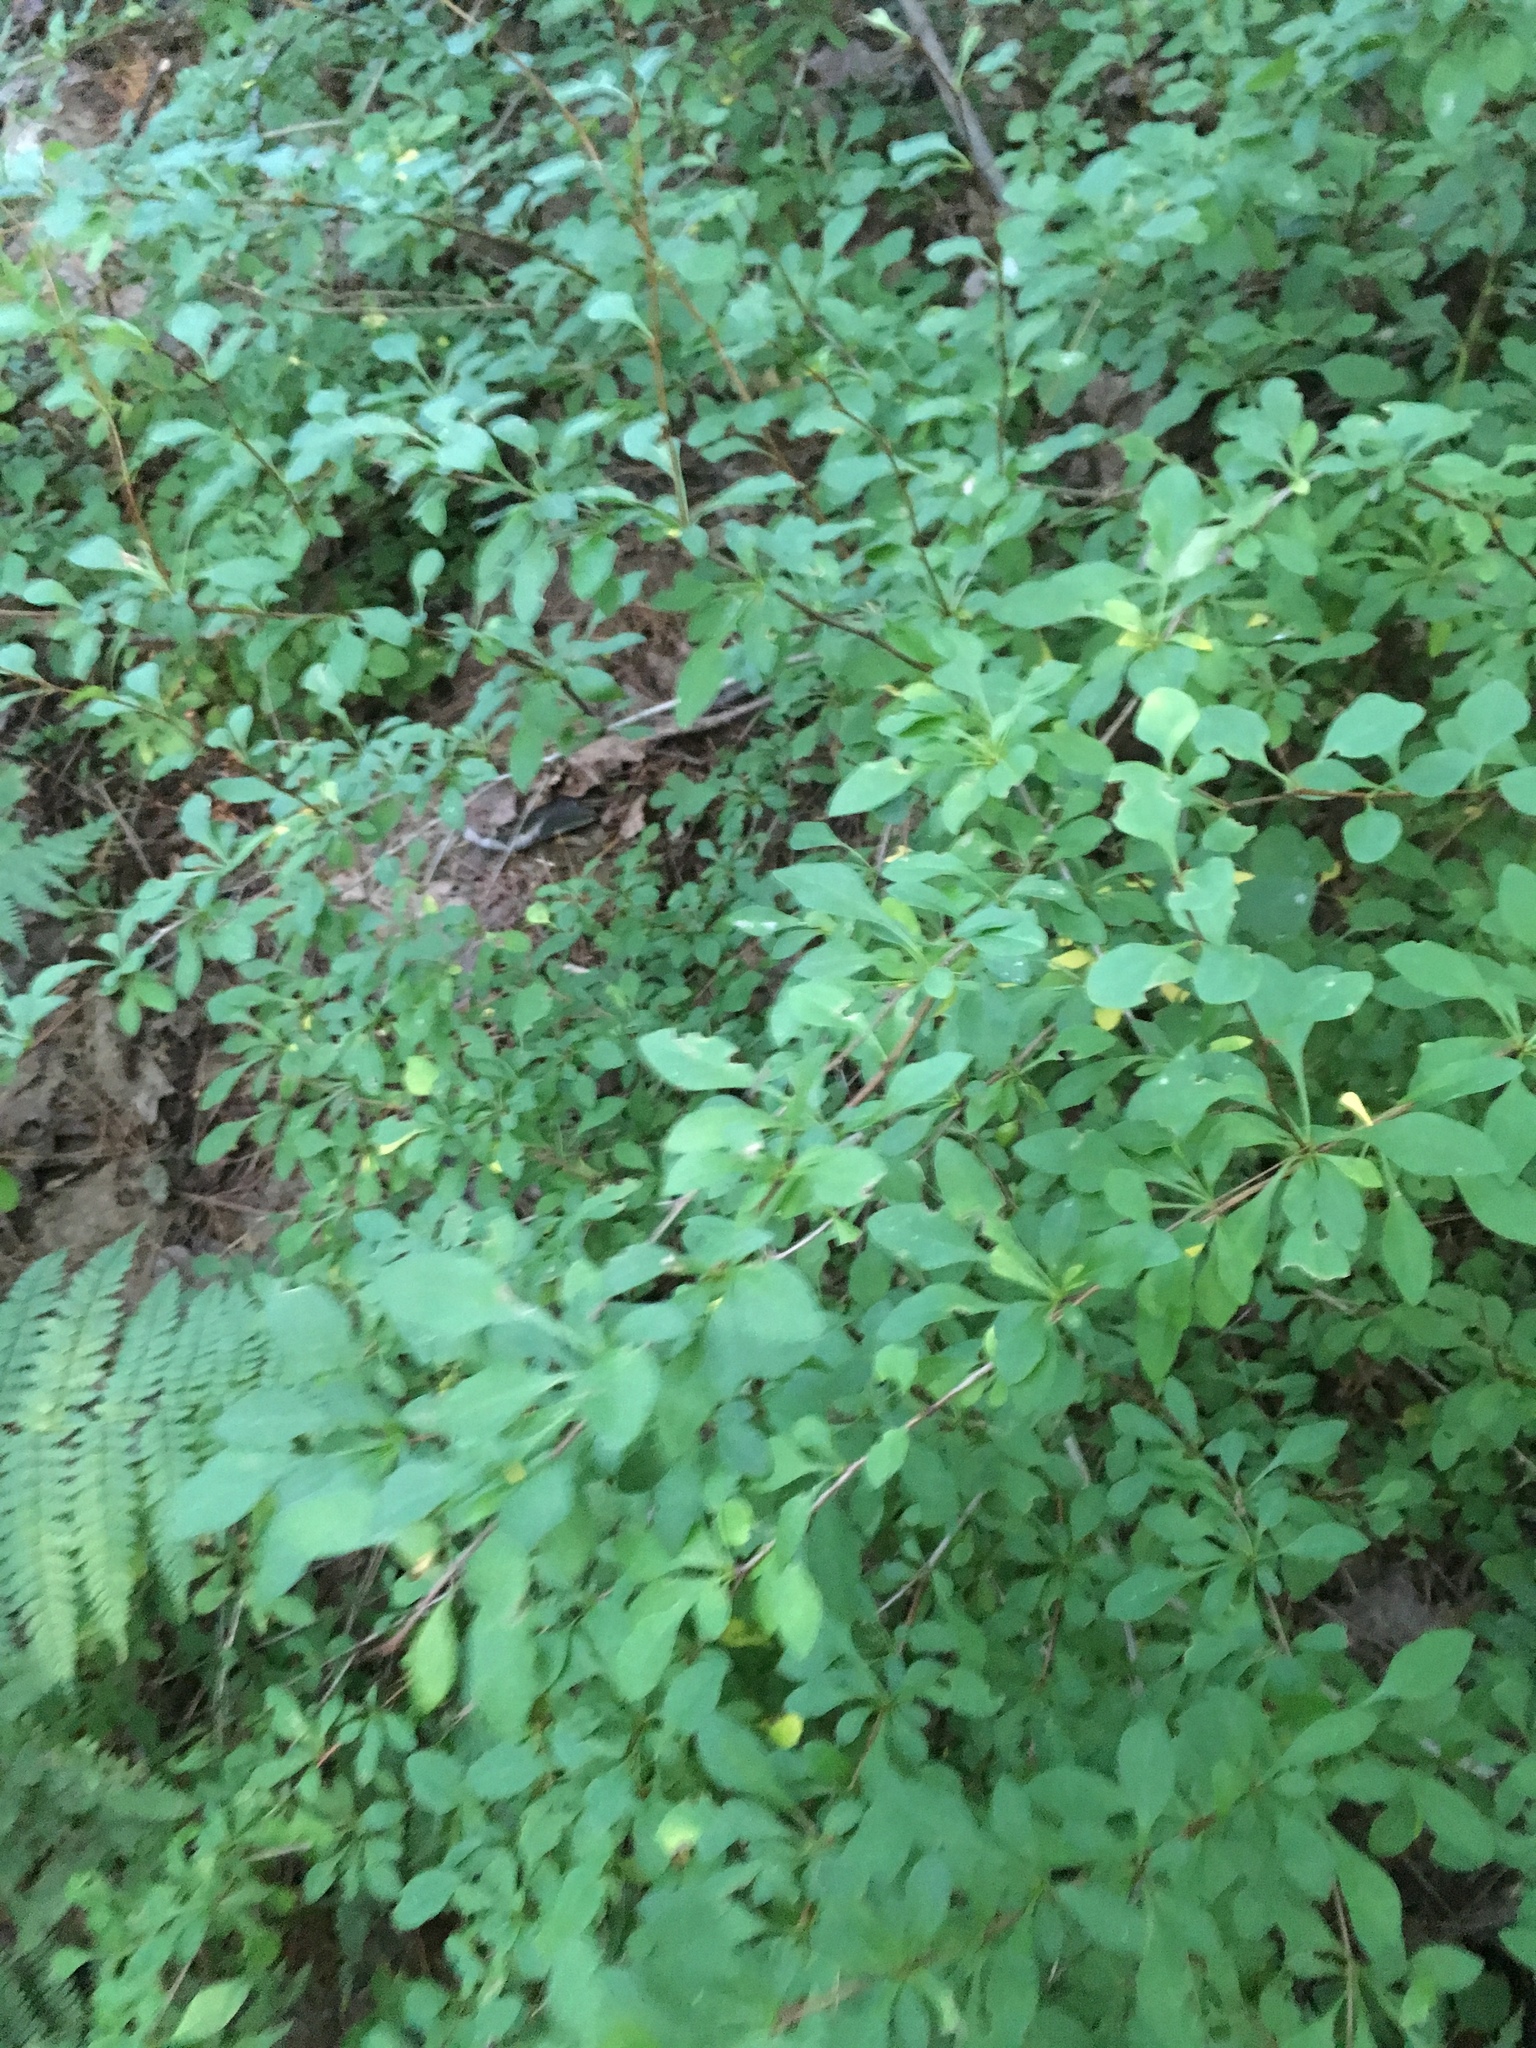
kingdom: Plantae
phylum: Tracheophyta
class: Magnoliopsida
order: Ranunculales
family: Berberidaceae
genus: Berberis
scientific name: Berberis thunbergii
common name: Japanese barberry
